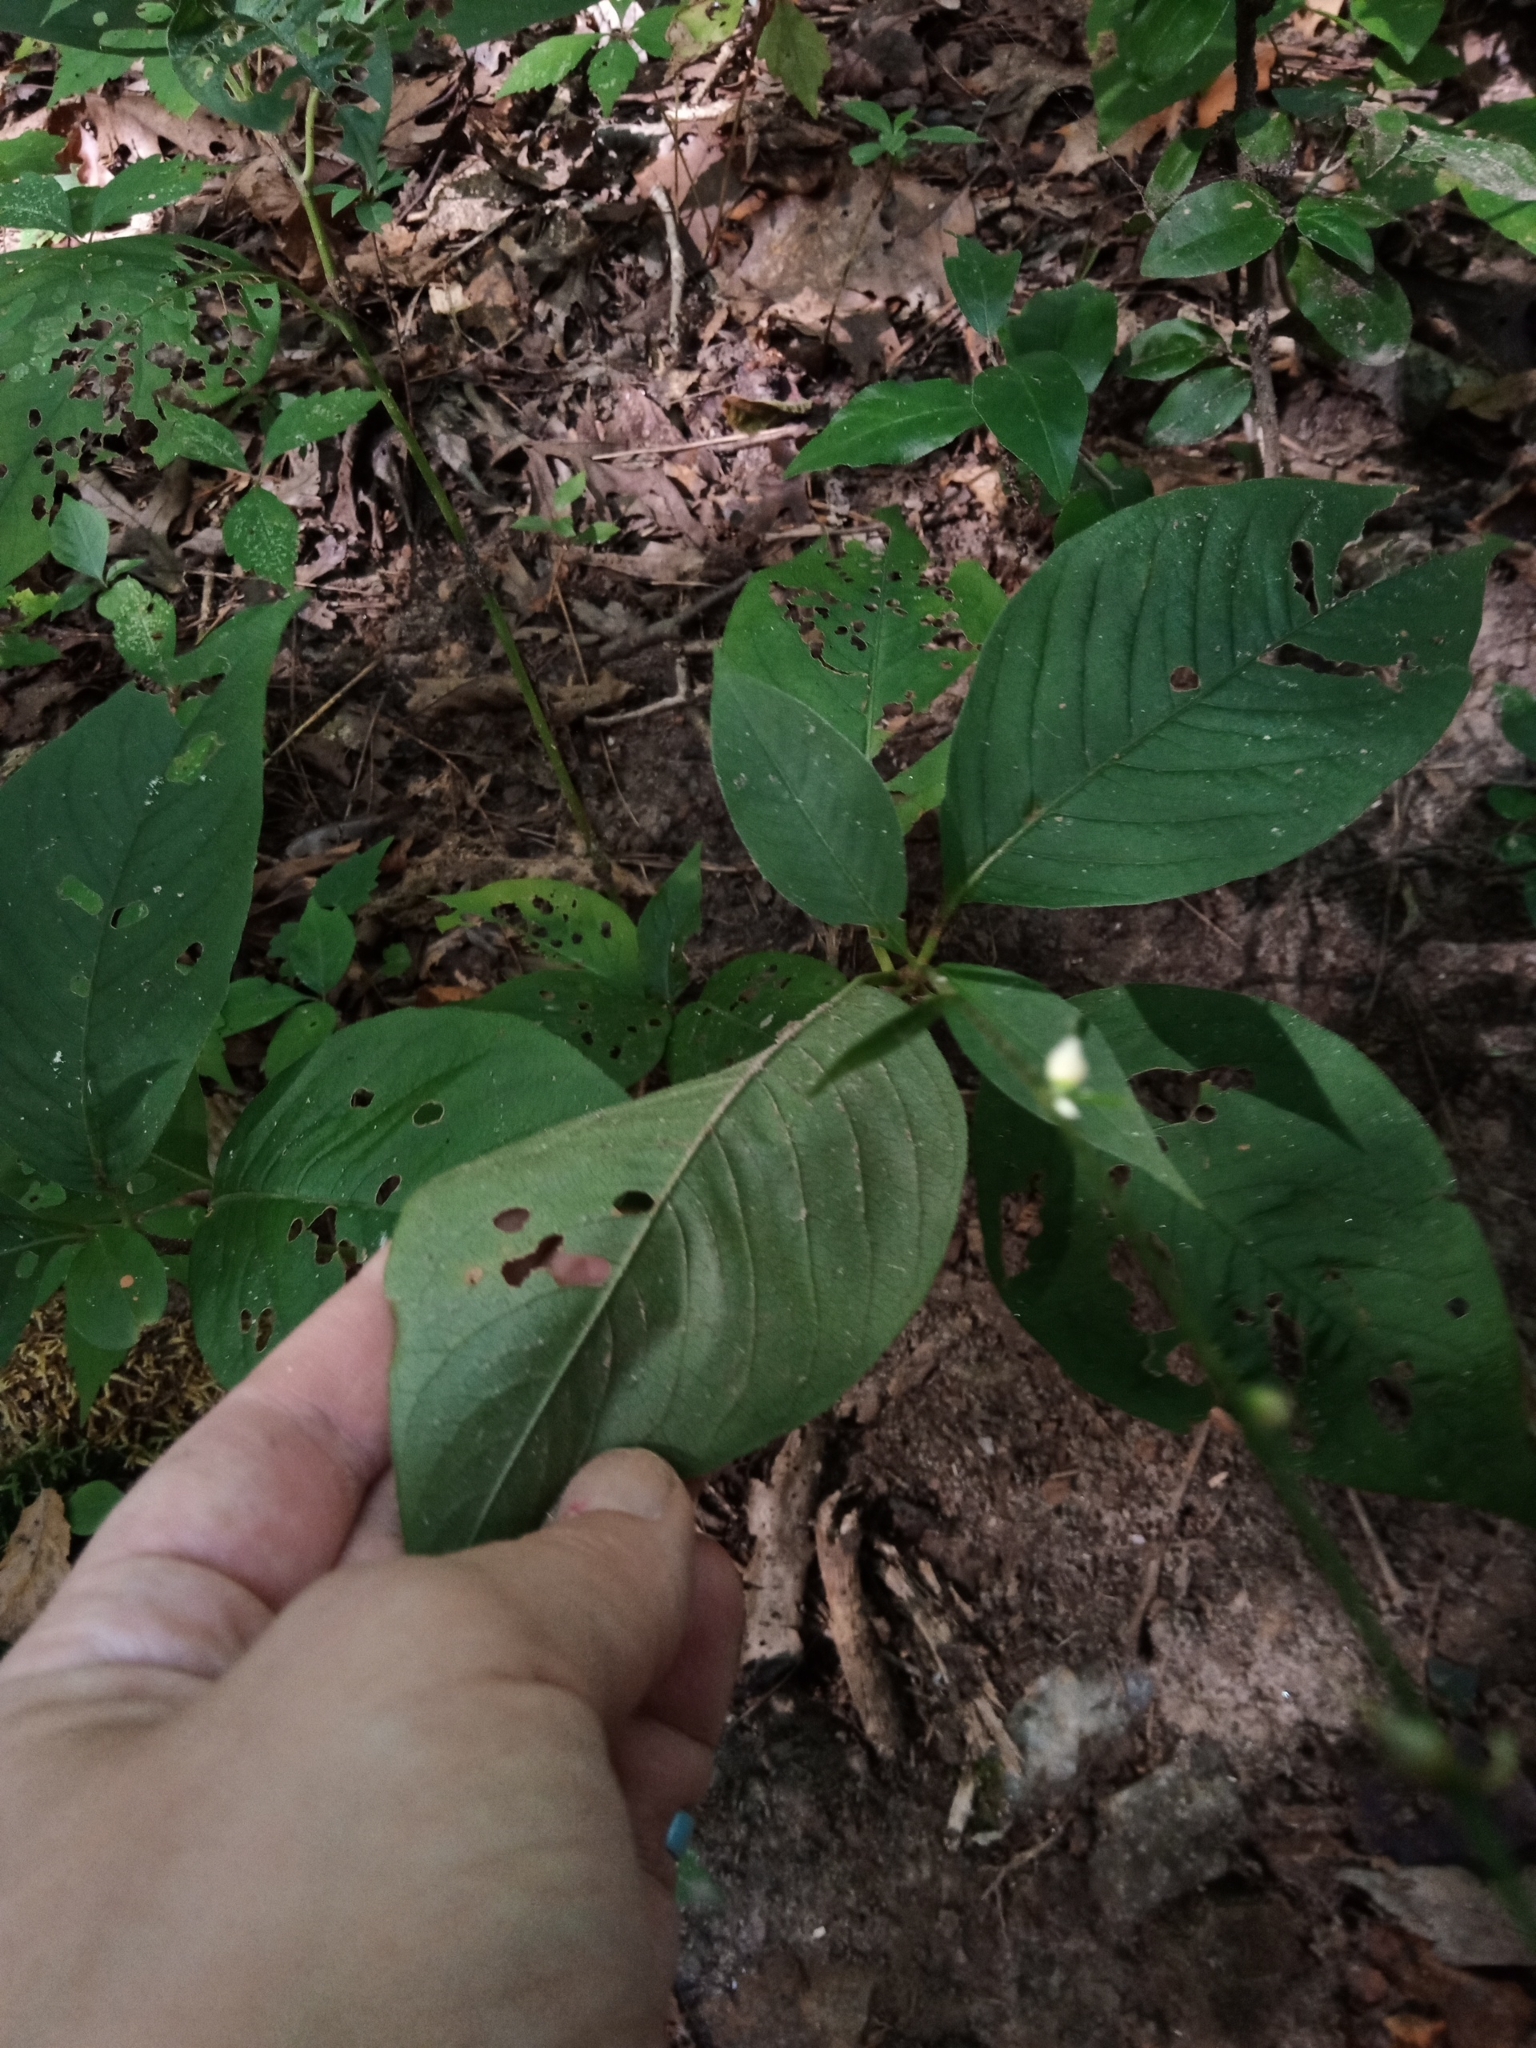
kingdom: Plantae
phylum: Tracheophyta
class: Magnoliopsida
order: Caryophyllales
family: Polygonaceae
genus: Persicaria
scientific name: Persicaria virginiana
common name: Jumpseed
